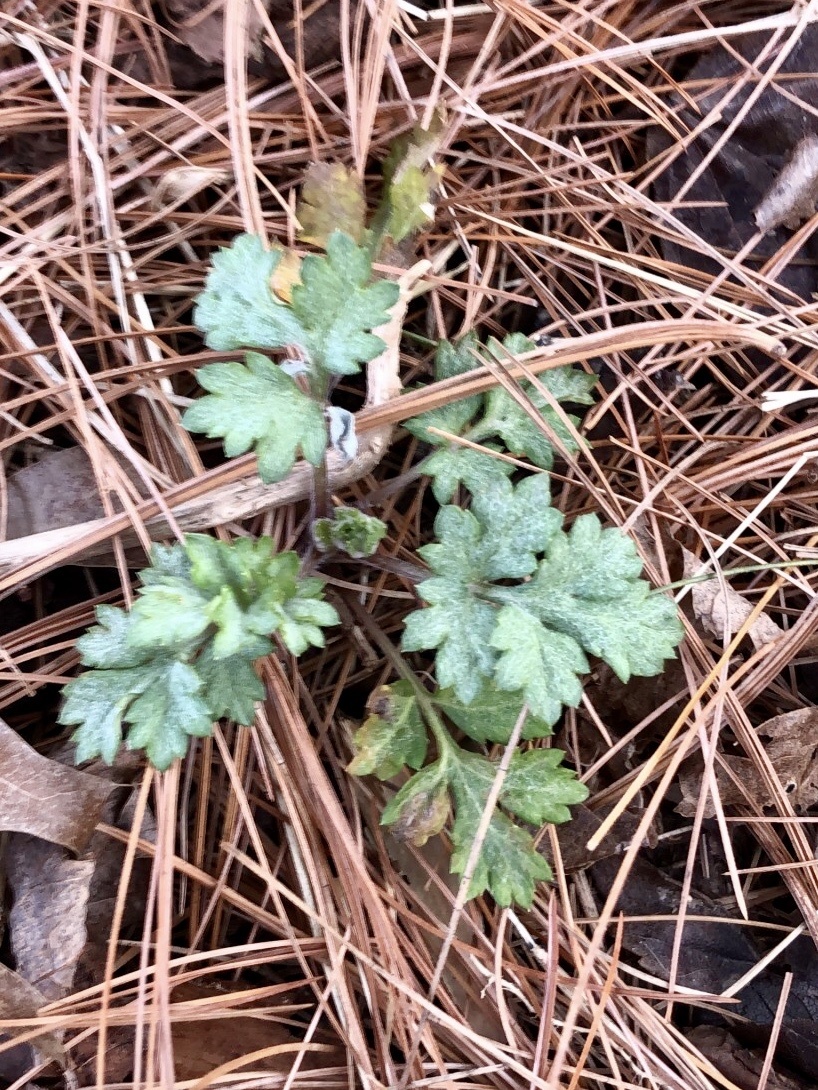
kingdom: Plantae
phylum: Tracheophyta
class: Magnoliopsida
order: Asterales
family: Asteraceae
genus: Artemisia
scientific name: Artemisia vulgaris
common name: Mugwort
